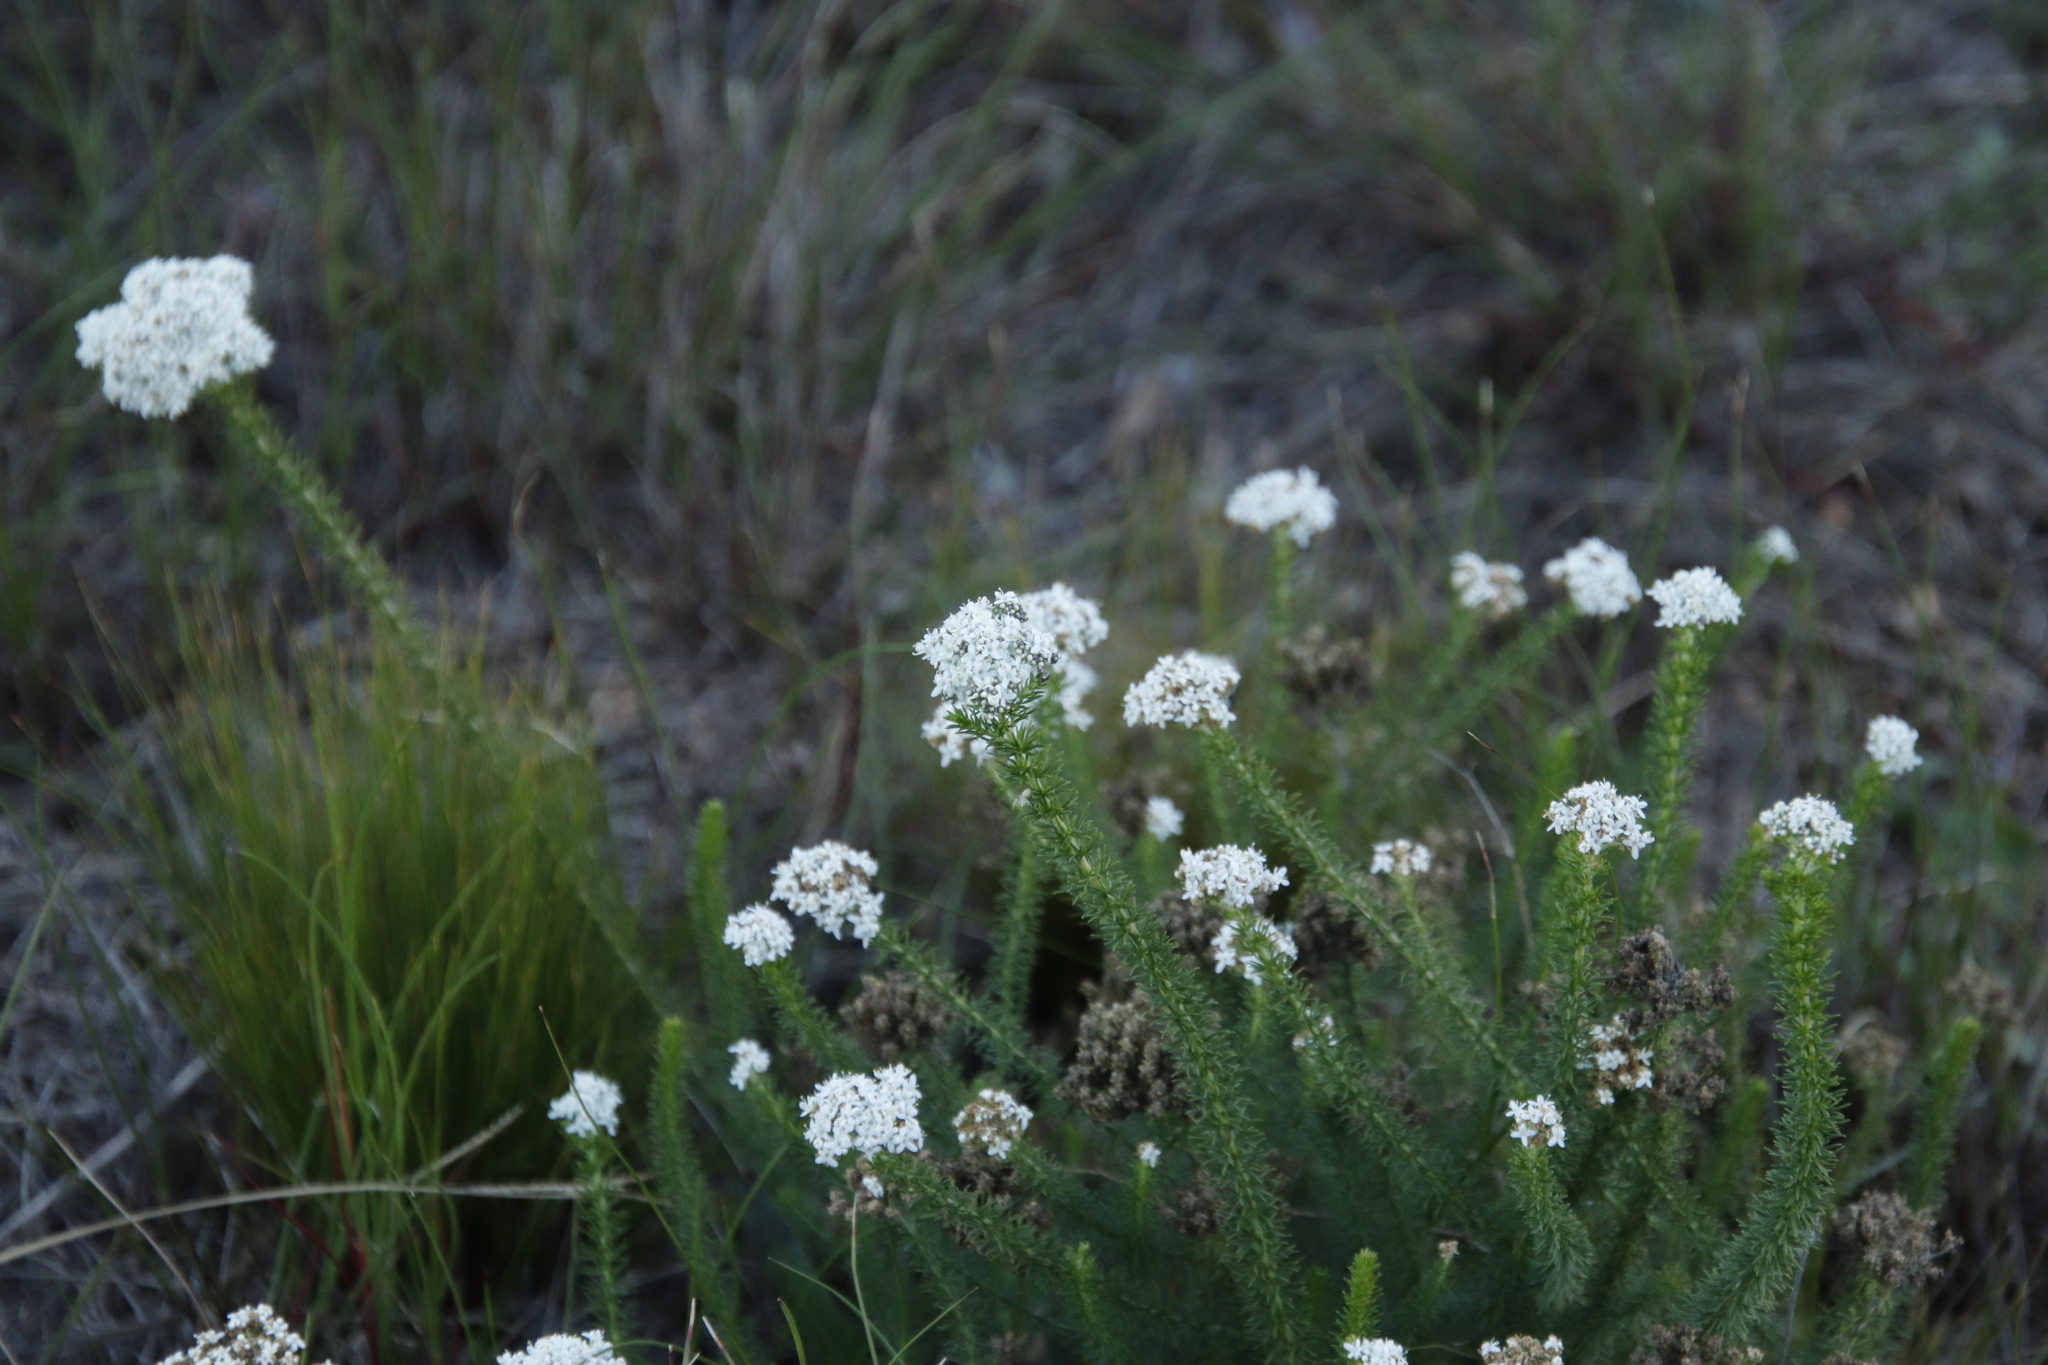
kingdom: Plantae
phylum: Tracheophyta
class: Magnoliopsida
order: Lamiales
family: Scrophulariaceae
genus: Selago
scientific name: Selago corymbosa
